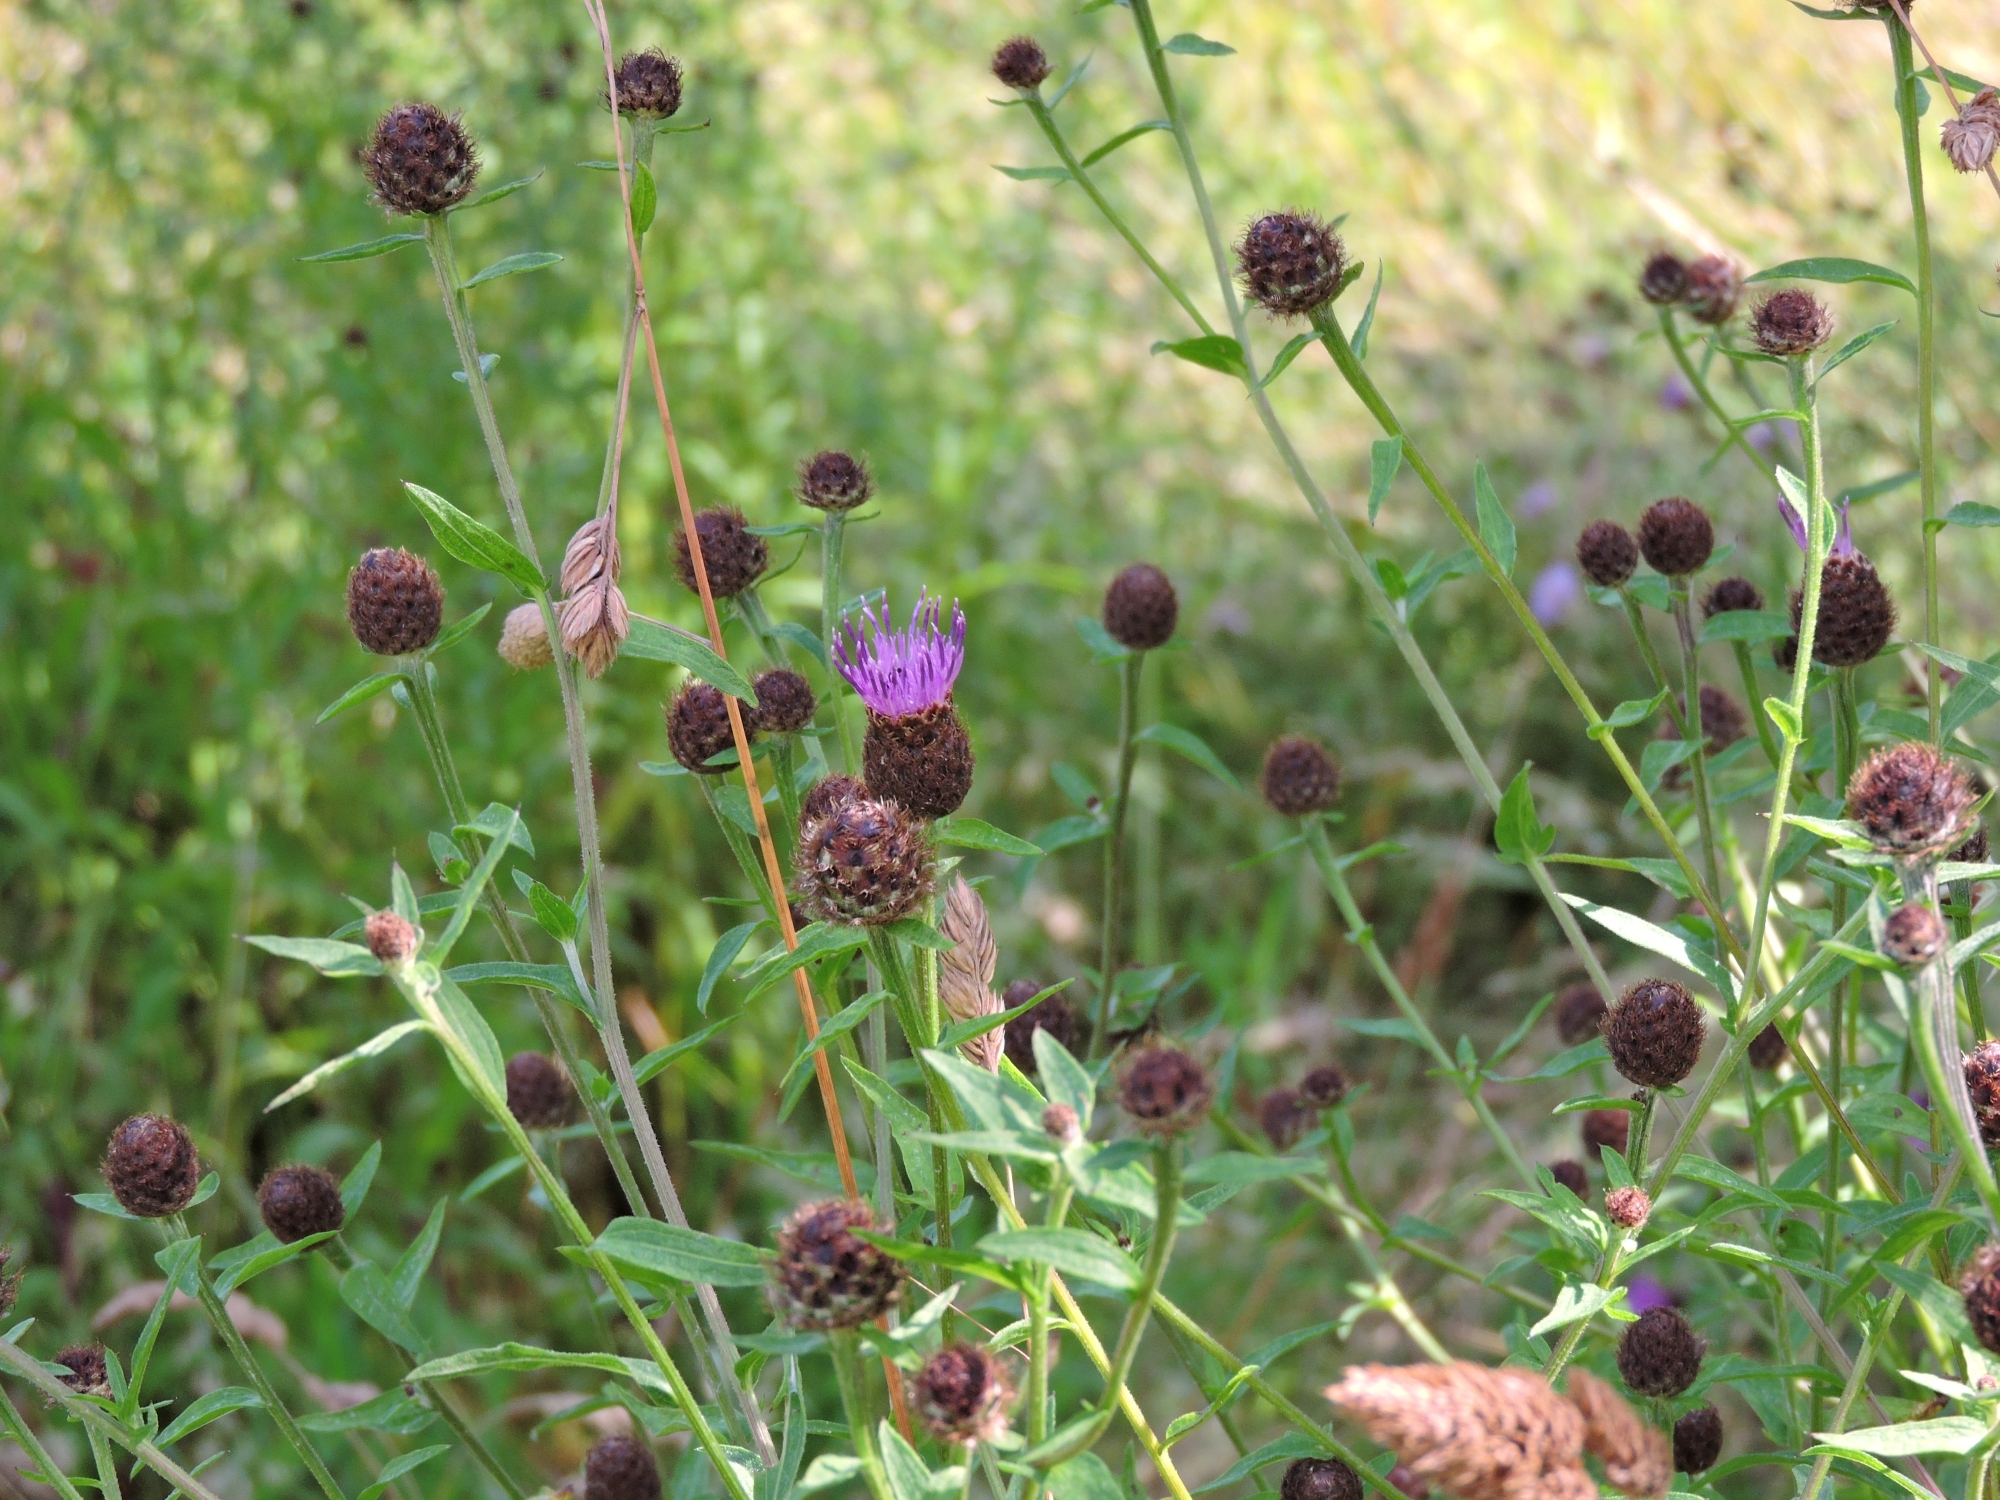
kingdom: Plantae
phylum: Tracheophyta
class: Magnoliopsida
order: Asterales
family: Asteraceae
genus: Centaurea
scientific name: Centaurea nigra
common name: Lesser knapweed
